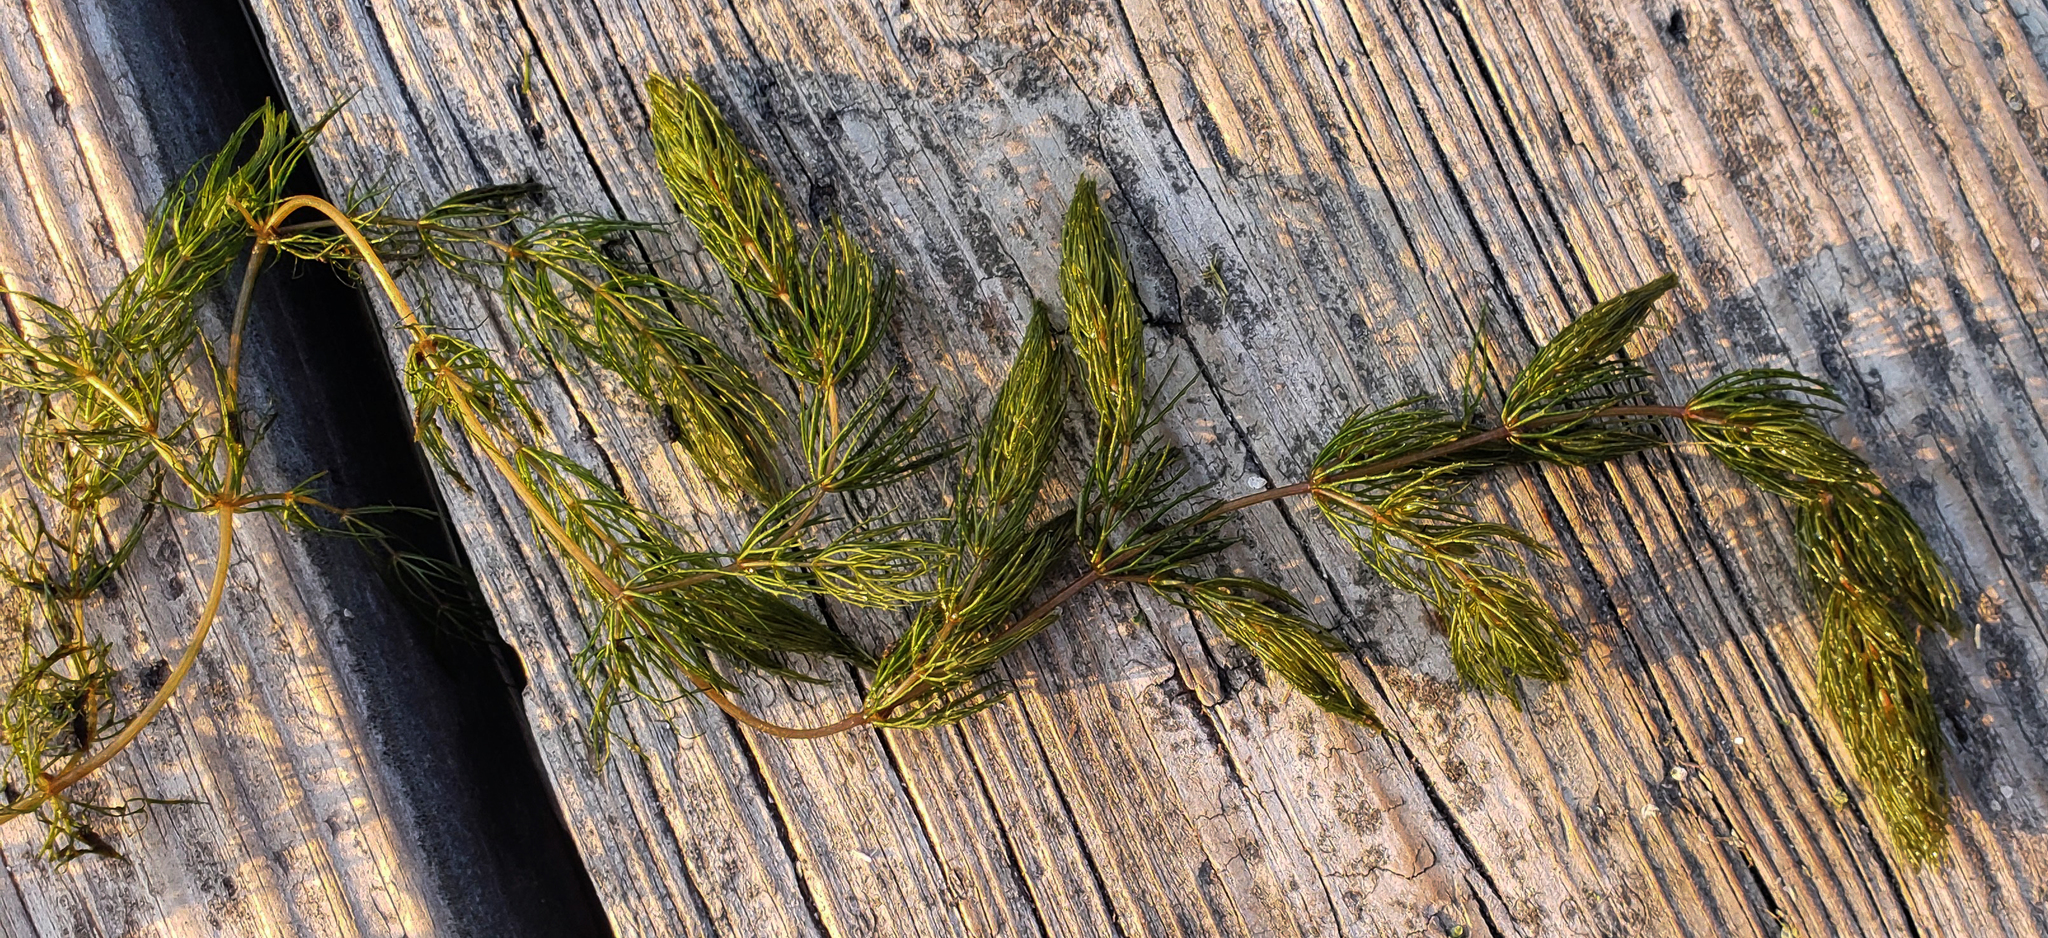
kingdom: Plantae
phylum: Tracheophyta
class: Magnoliopsida
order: Ceratophyllales
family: Ceratophyllaceae
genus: Ceratophyllum
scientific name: Ceratophyllum demersum
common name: Rigid hornwort
